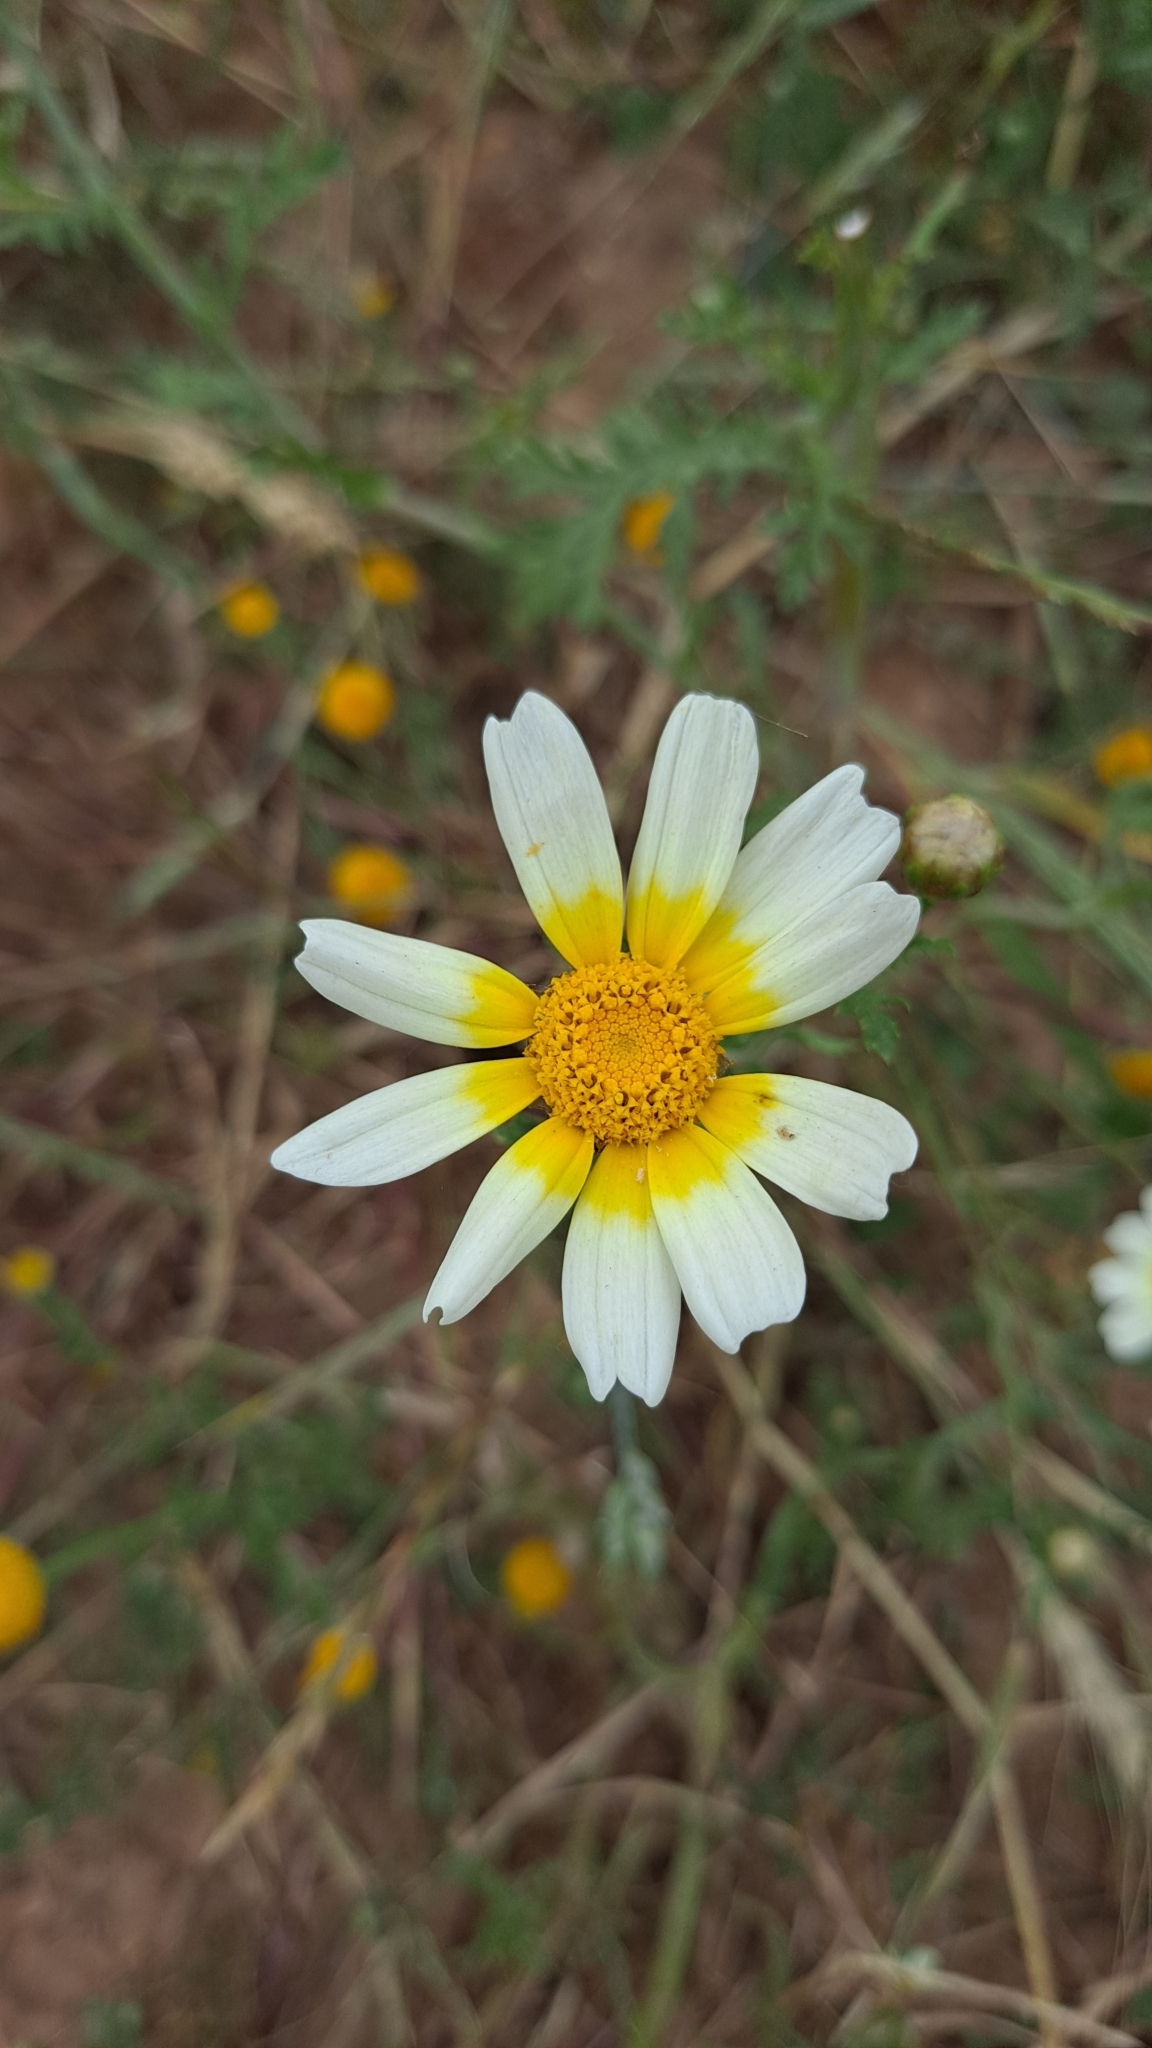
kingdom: Plantae
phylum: Tracheophyta
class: Magnoliopsida
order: Asterales
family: Asteraceae
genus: Glebionis
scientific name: Glebionis coronaria
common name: Crowndaisy
